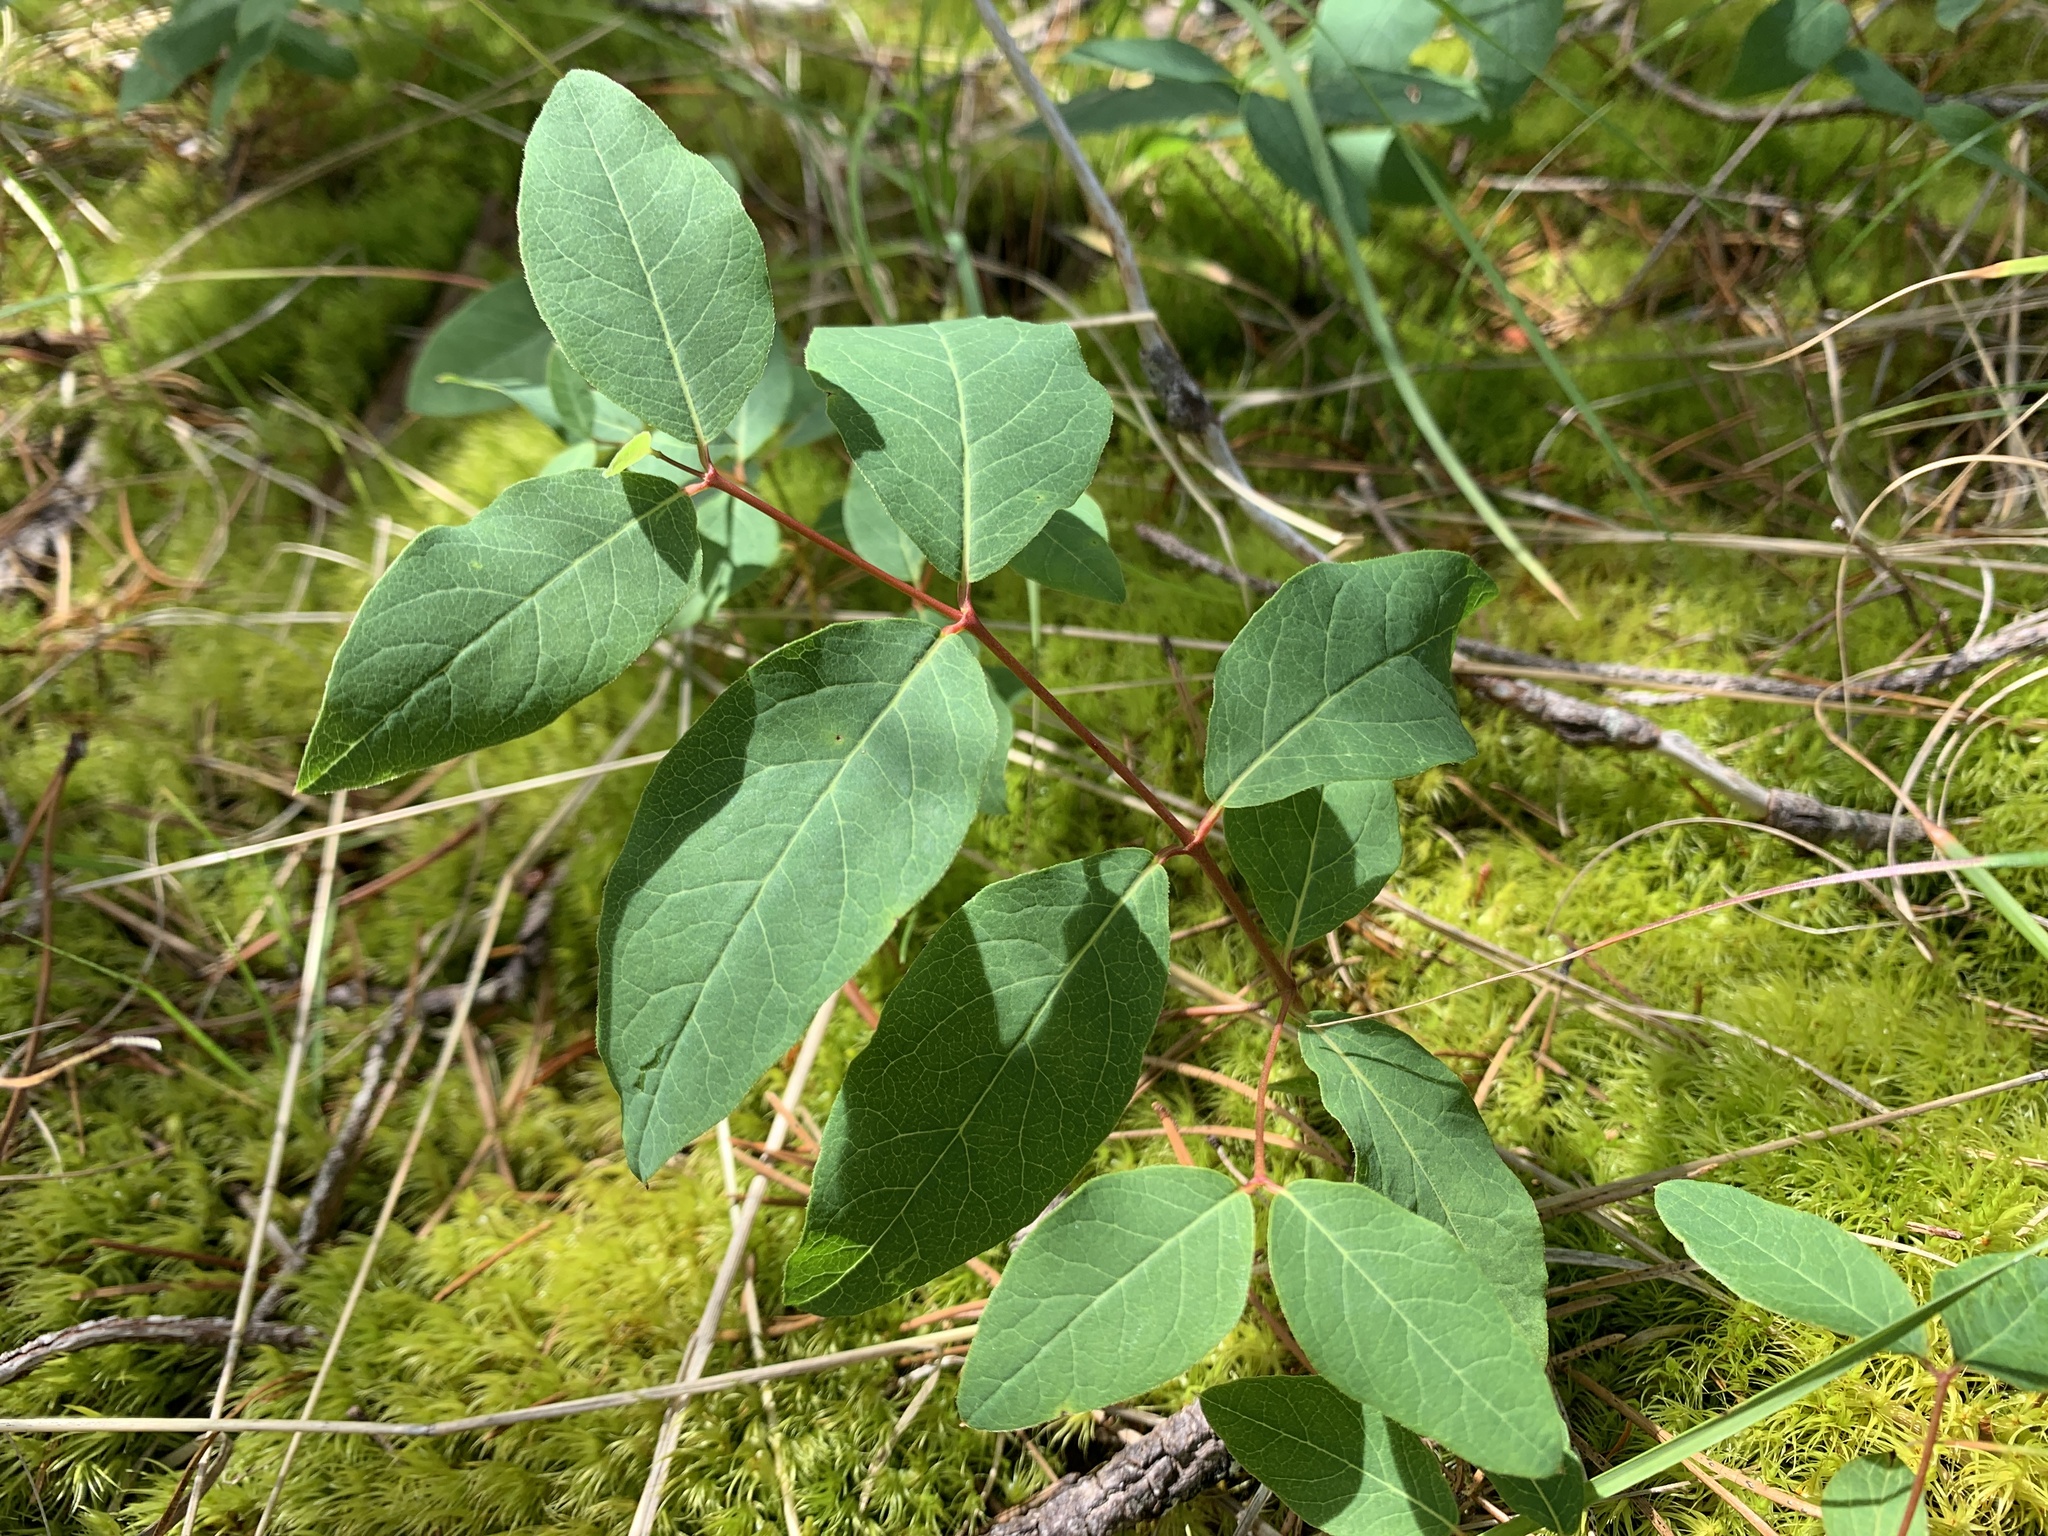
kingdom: Plantae
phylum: Tracheophyta
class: Magnoliopsida
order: Gentianales
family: Apocynaceae
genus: Apocynum
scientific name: Apocynum androsaemifolium
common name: Spreading dogbane
